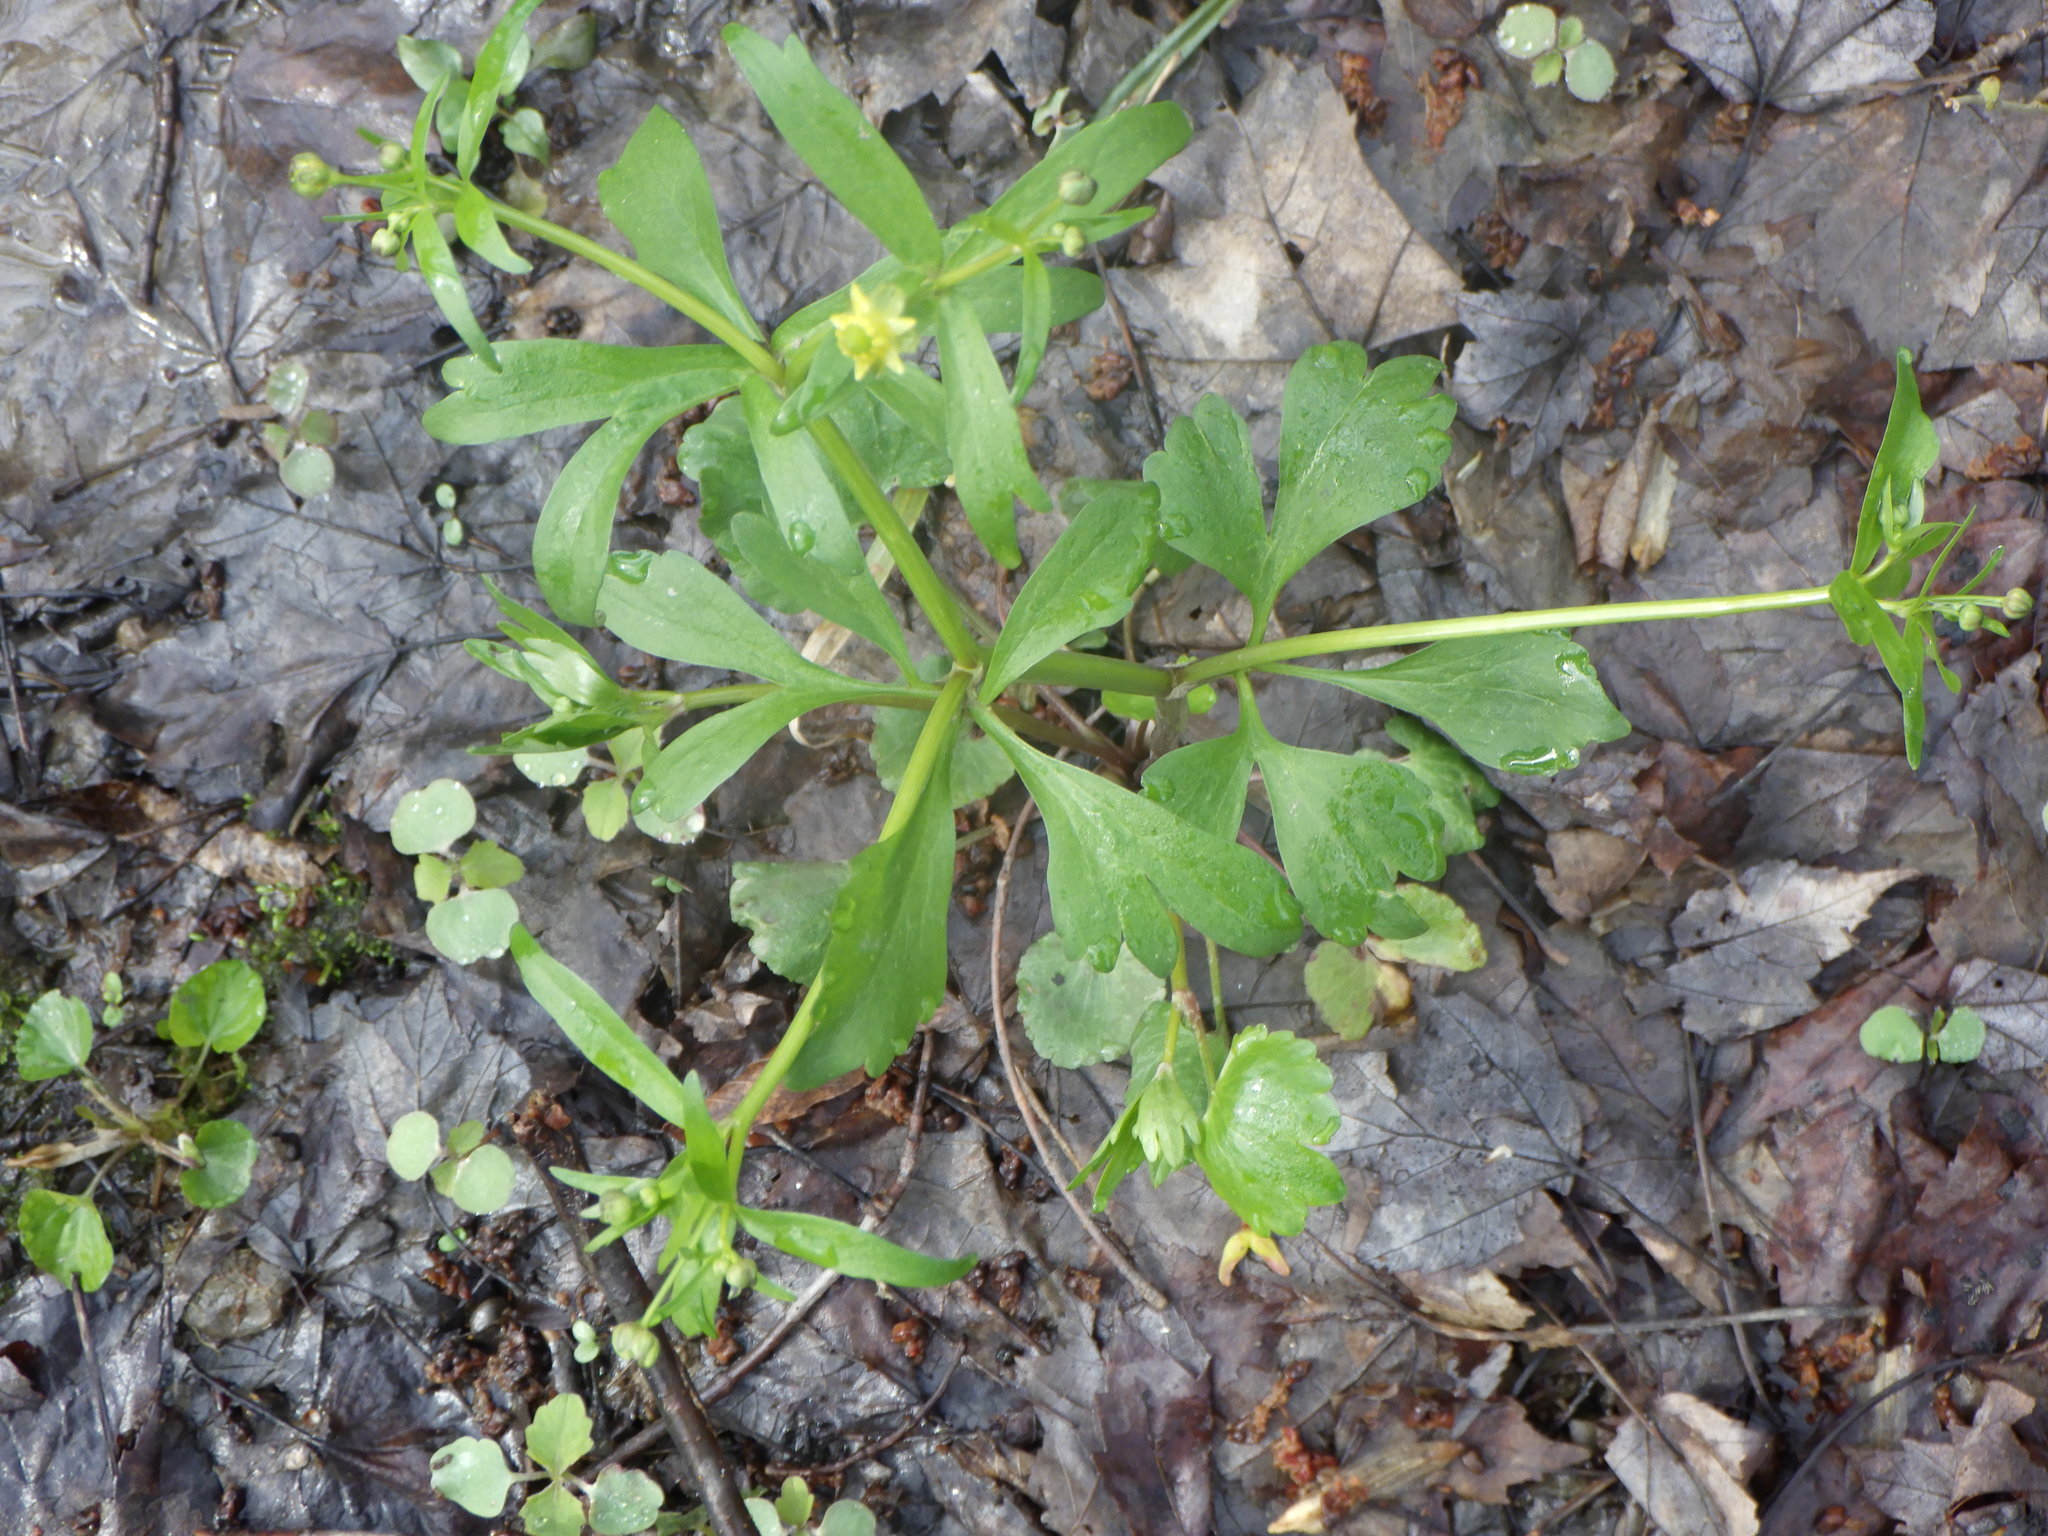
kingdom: Plantae
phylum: Tracheophyta
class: Magnoliopsida
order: Ranunculales
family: Ranunculaceae
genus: Ranunculus
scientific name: Ranunculus abortivus
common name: Early wood buttercup
